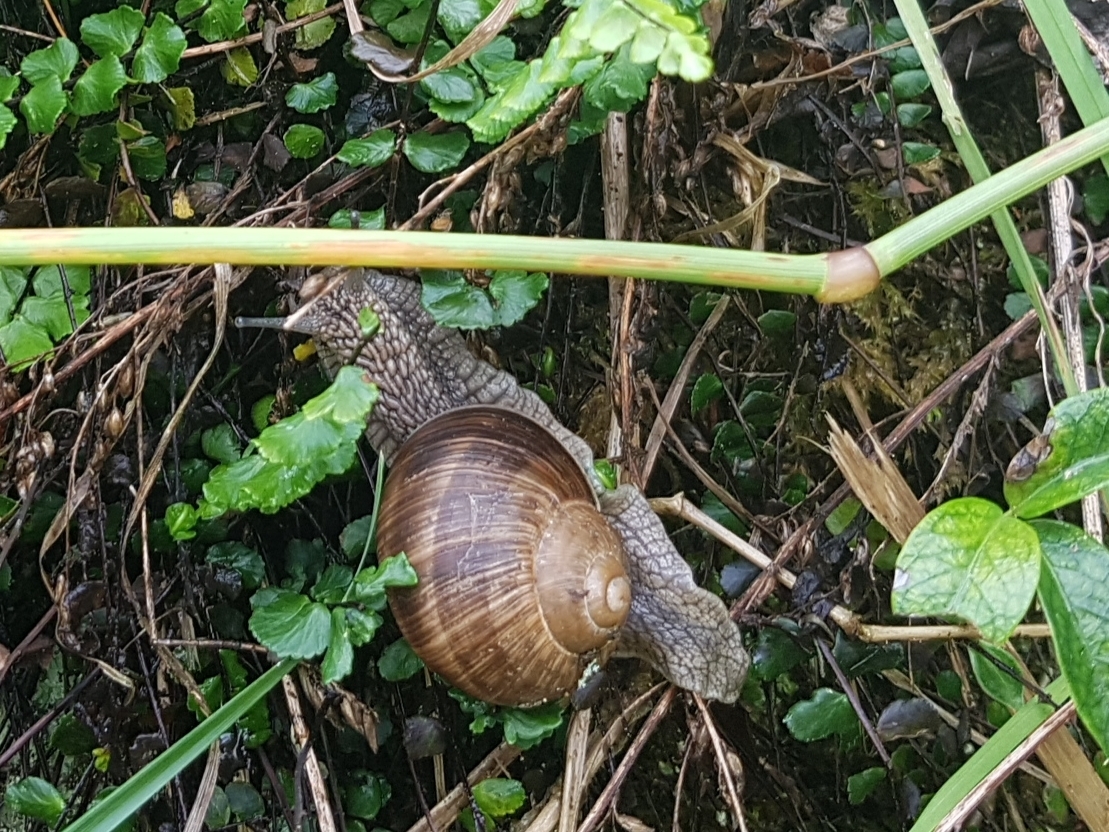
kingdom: Animalia
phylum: Mollusca
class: Gastropoda
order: Stylommatophora
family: Helicidae
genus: Helix
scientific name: Helix pomatia
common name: Roman snail
